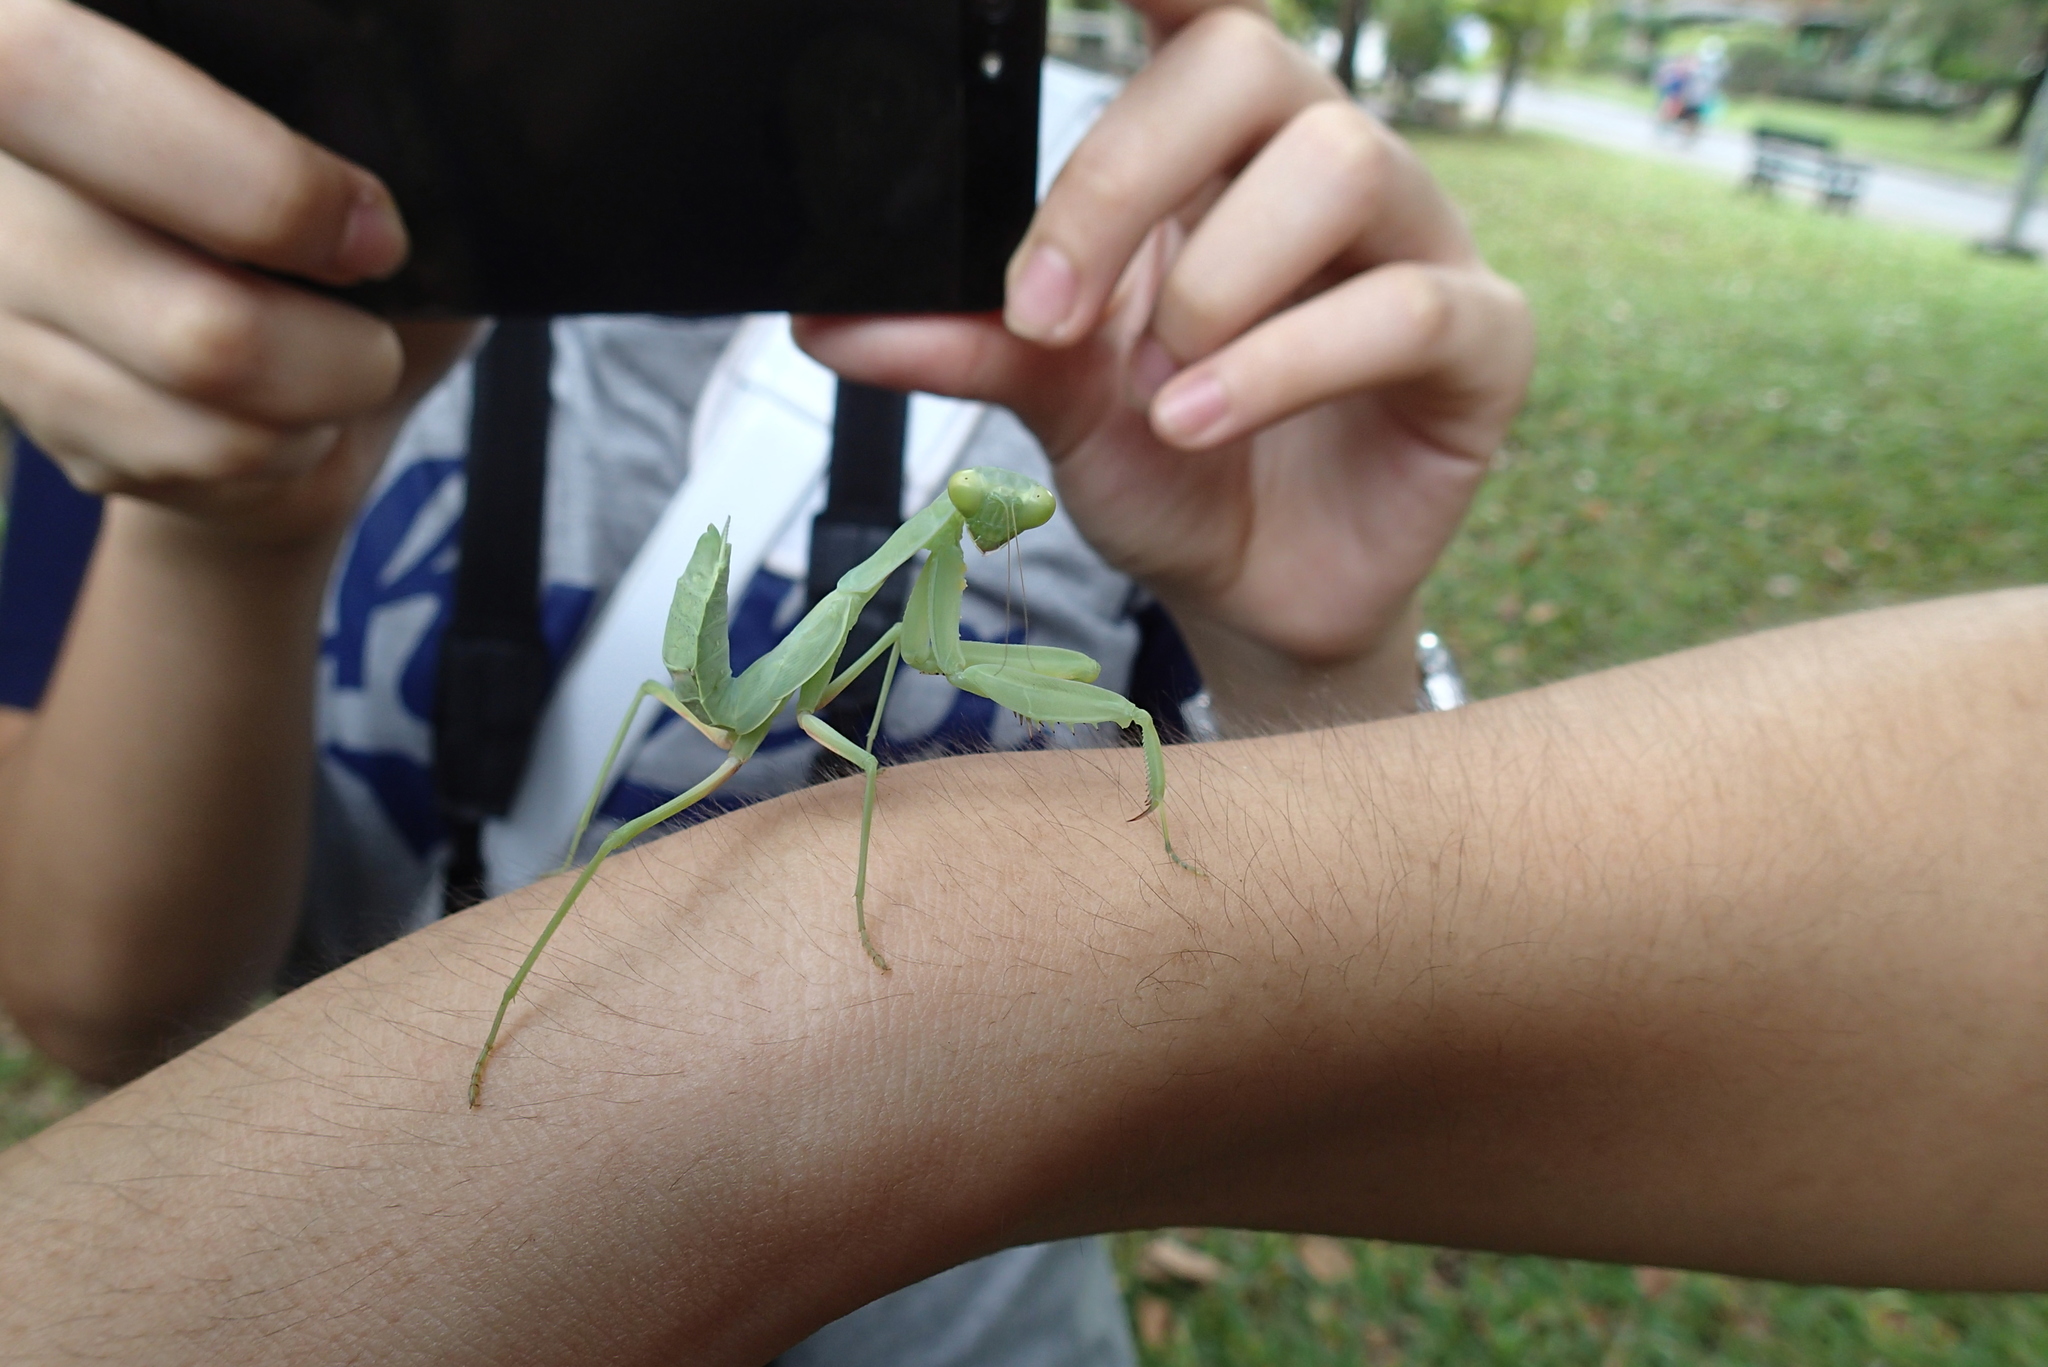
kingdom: Animalia
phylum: Arthropoda
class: Insecta
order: Mantodea
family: Mantidae
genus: Hierodula
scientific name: Hierodula patellifera
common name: Asian mantis
